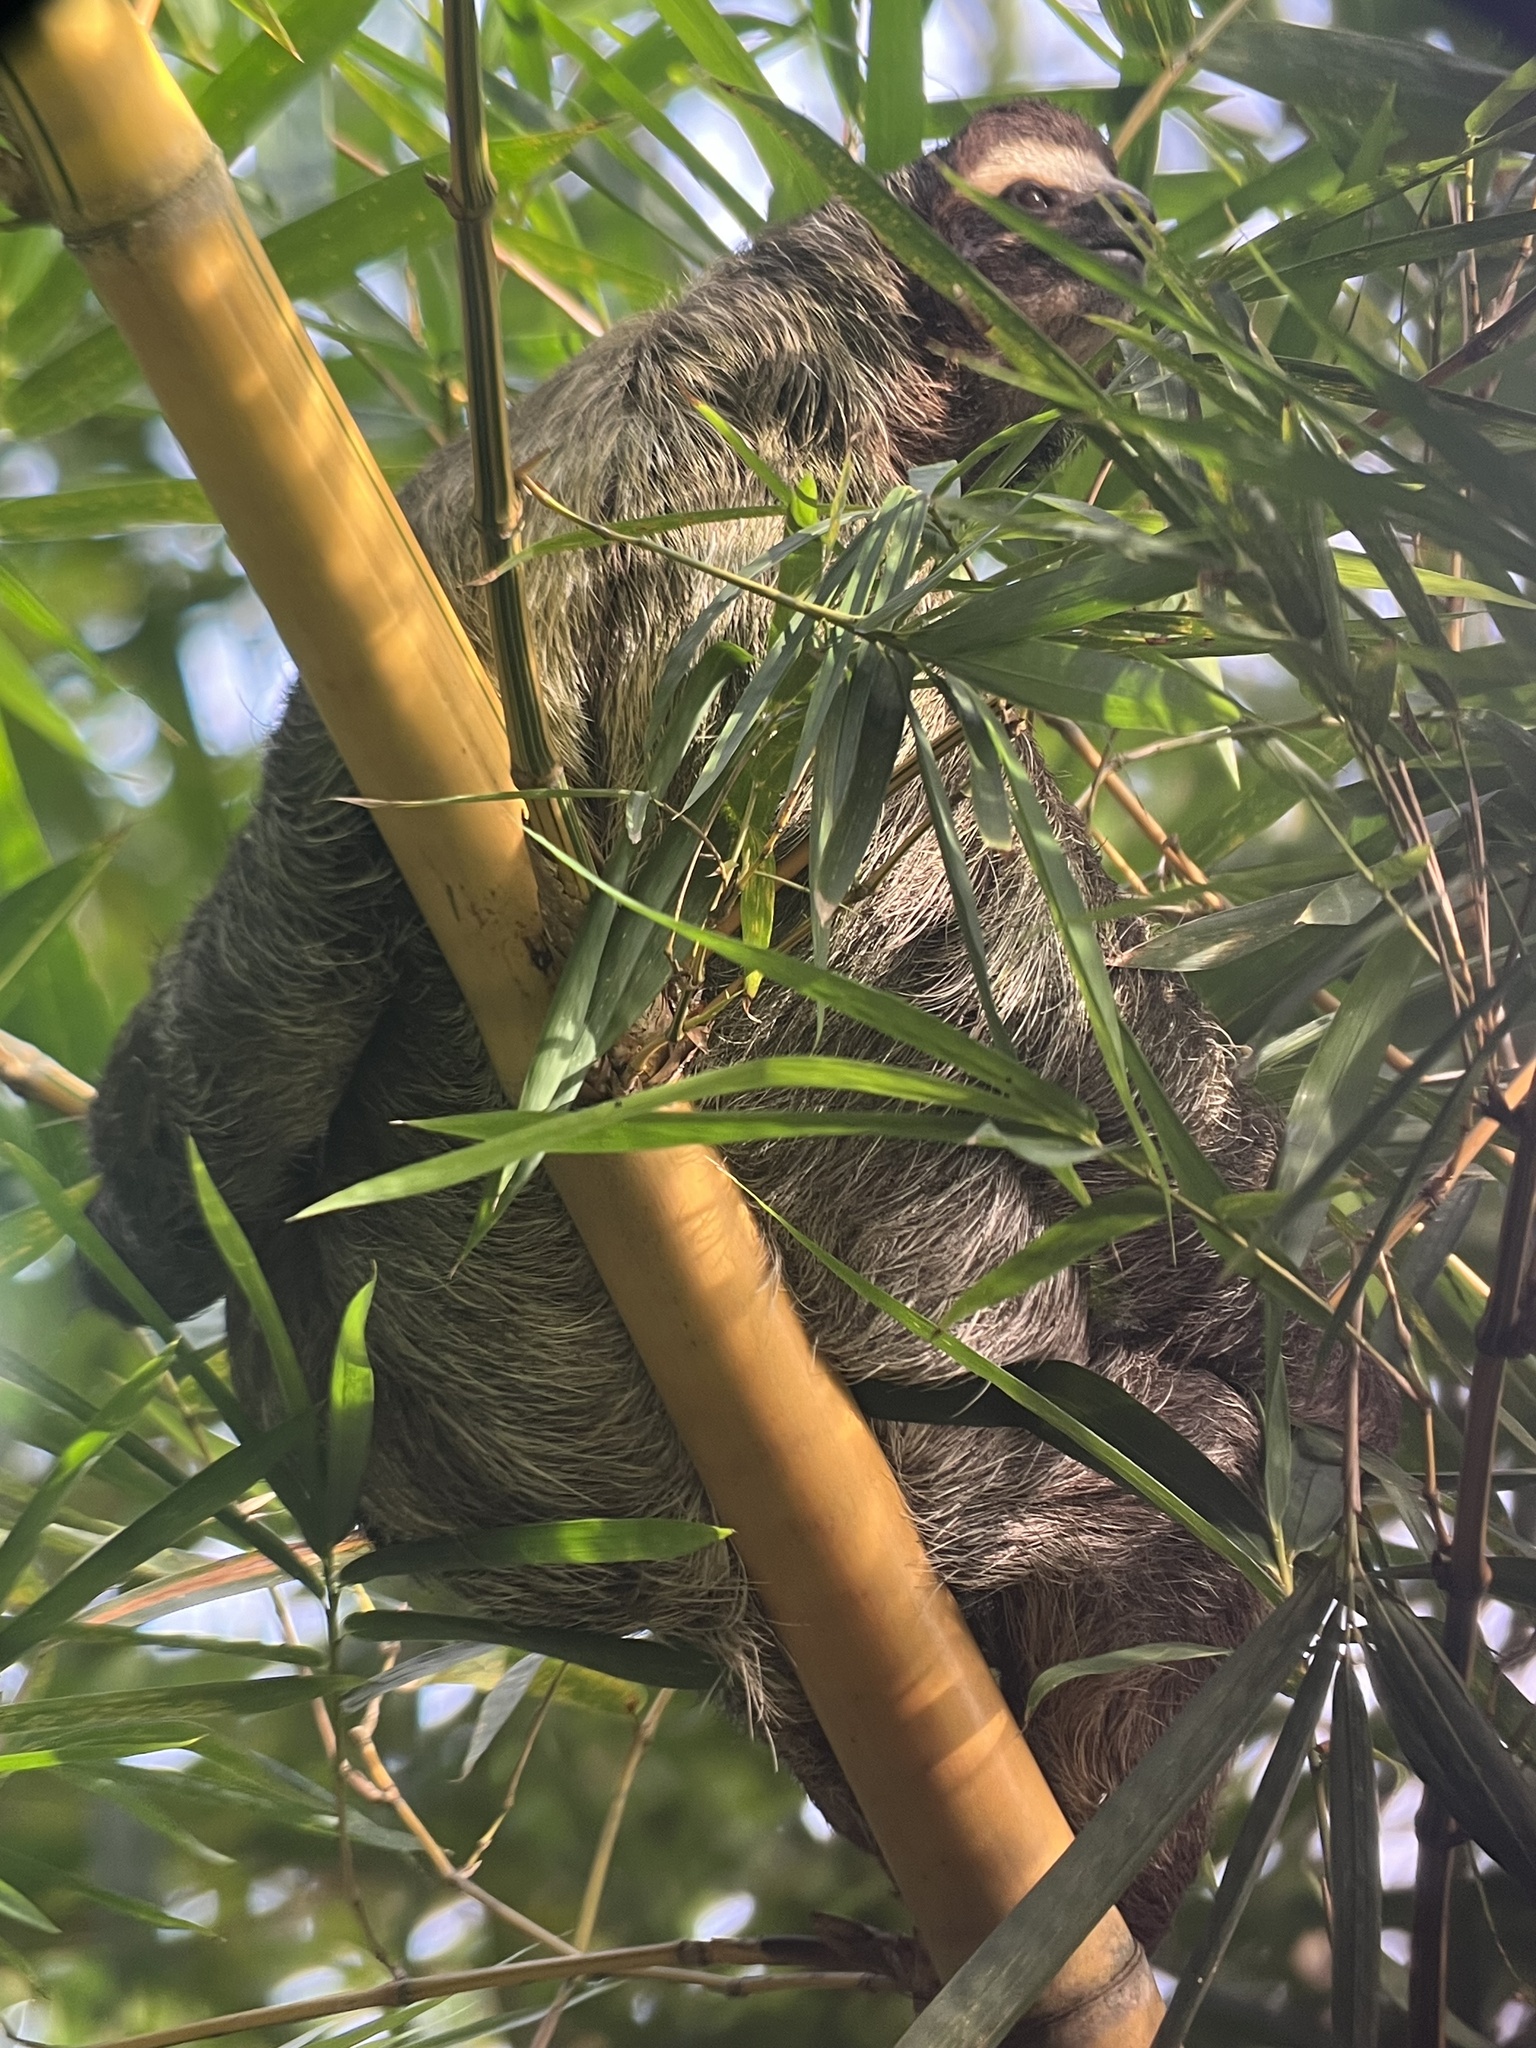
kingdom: Animalia
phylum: Chordata
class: Mammalia
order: Pilosa
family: Bradypodidae
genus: Bradypus
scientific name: Bradypus variegatus
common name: Brown-throated three-toed sloth
